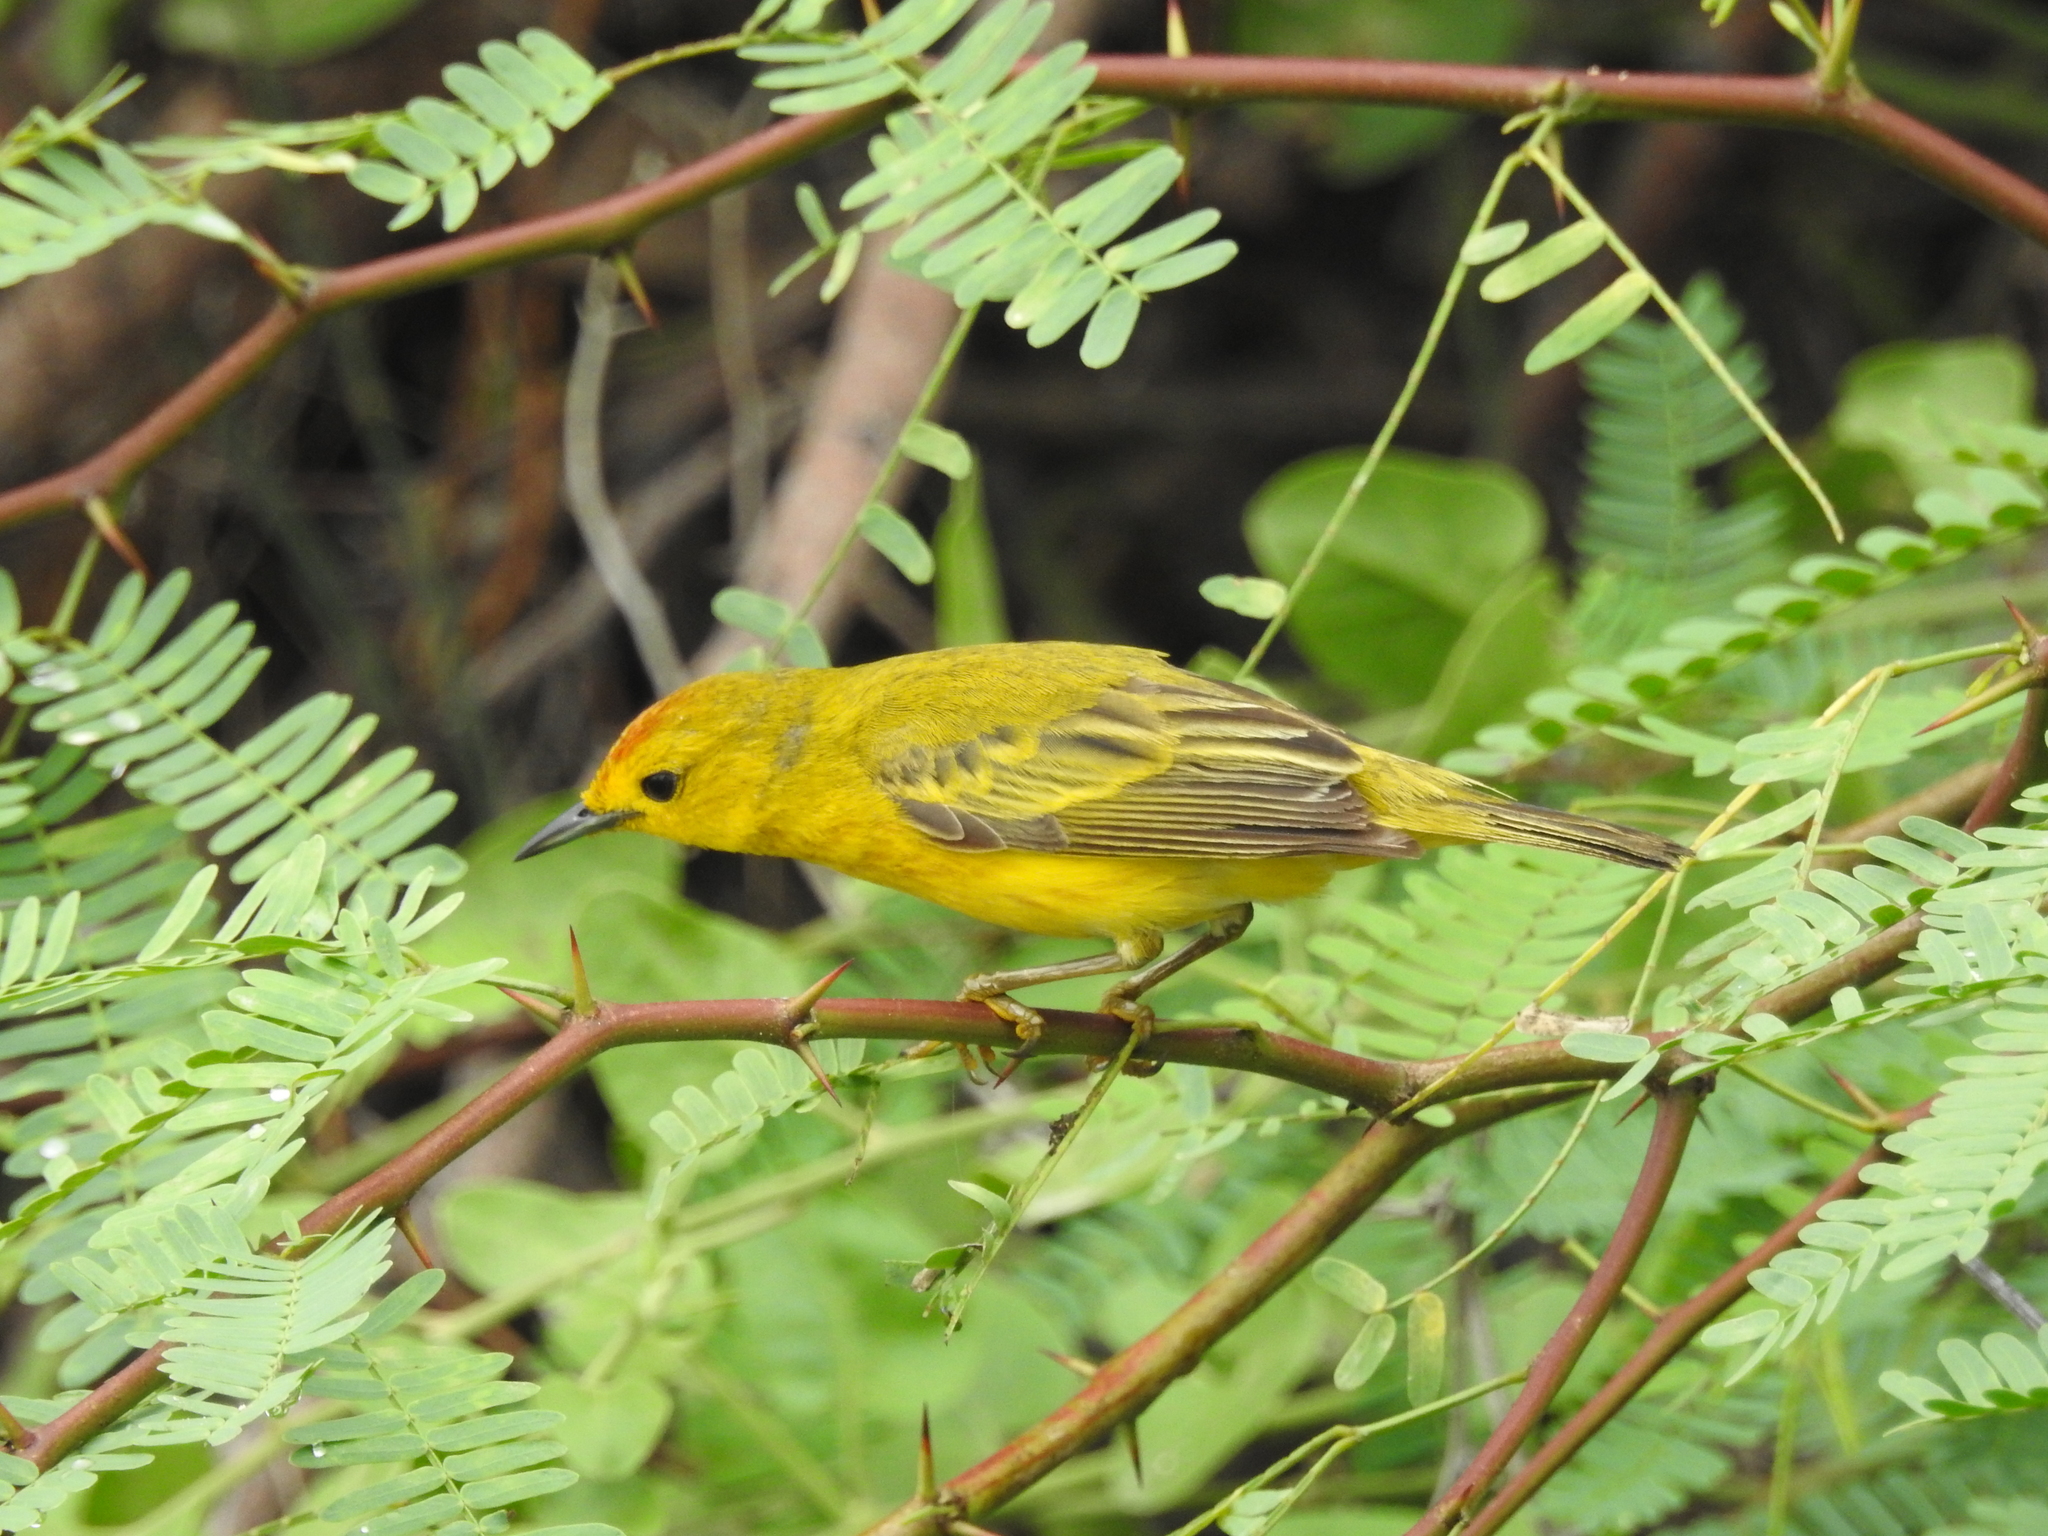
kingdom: Animalia
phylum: Chordata
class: Aves
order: Passeriformes
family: Parulidae
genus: Setophaga
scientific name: Setophaga petechia
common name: Yellow warbler
